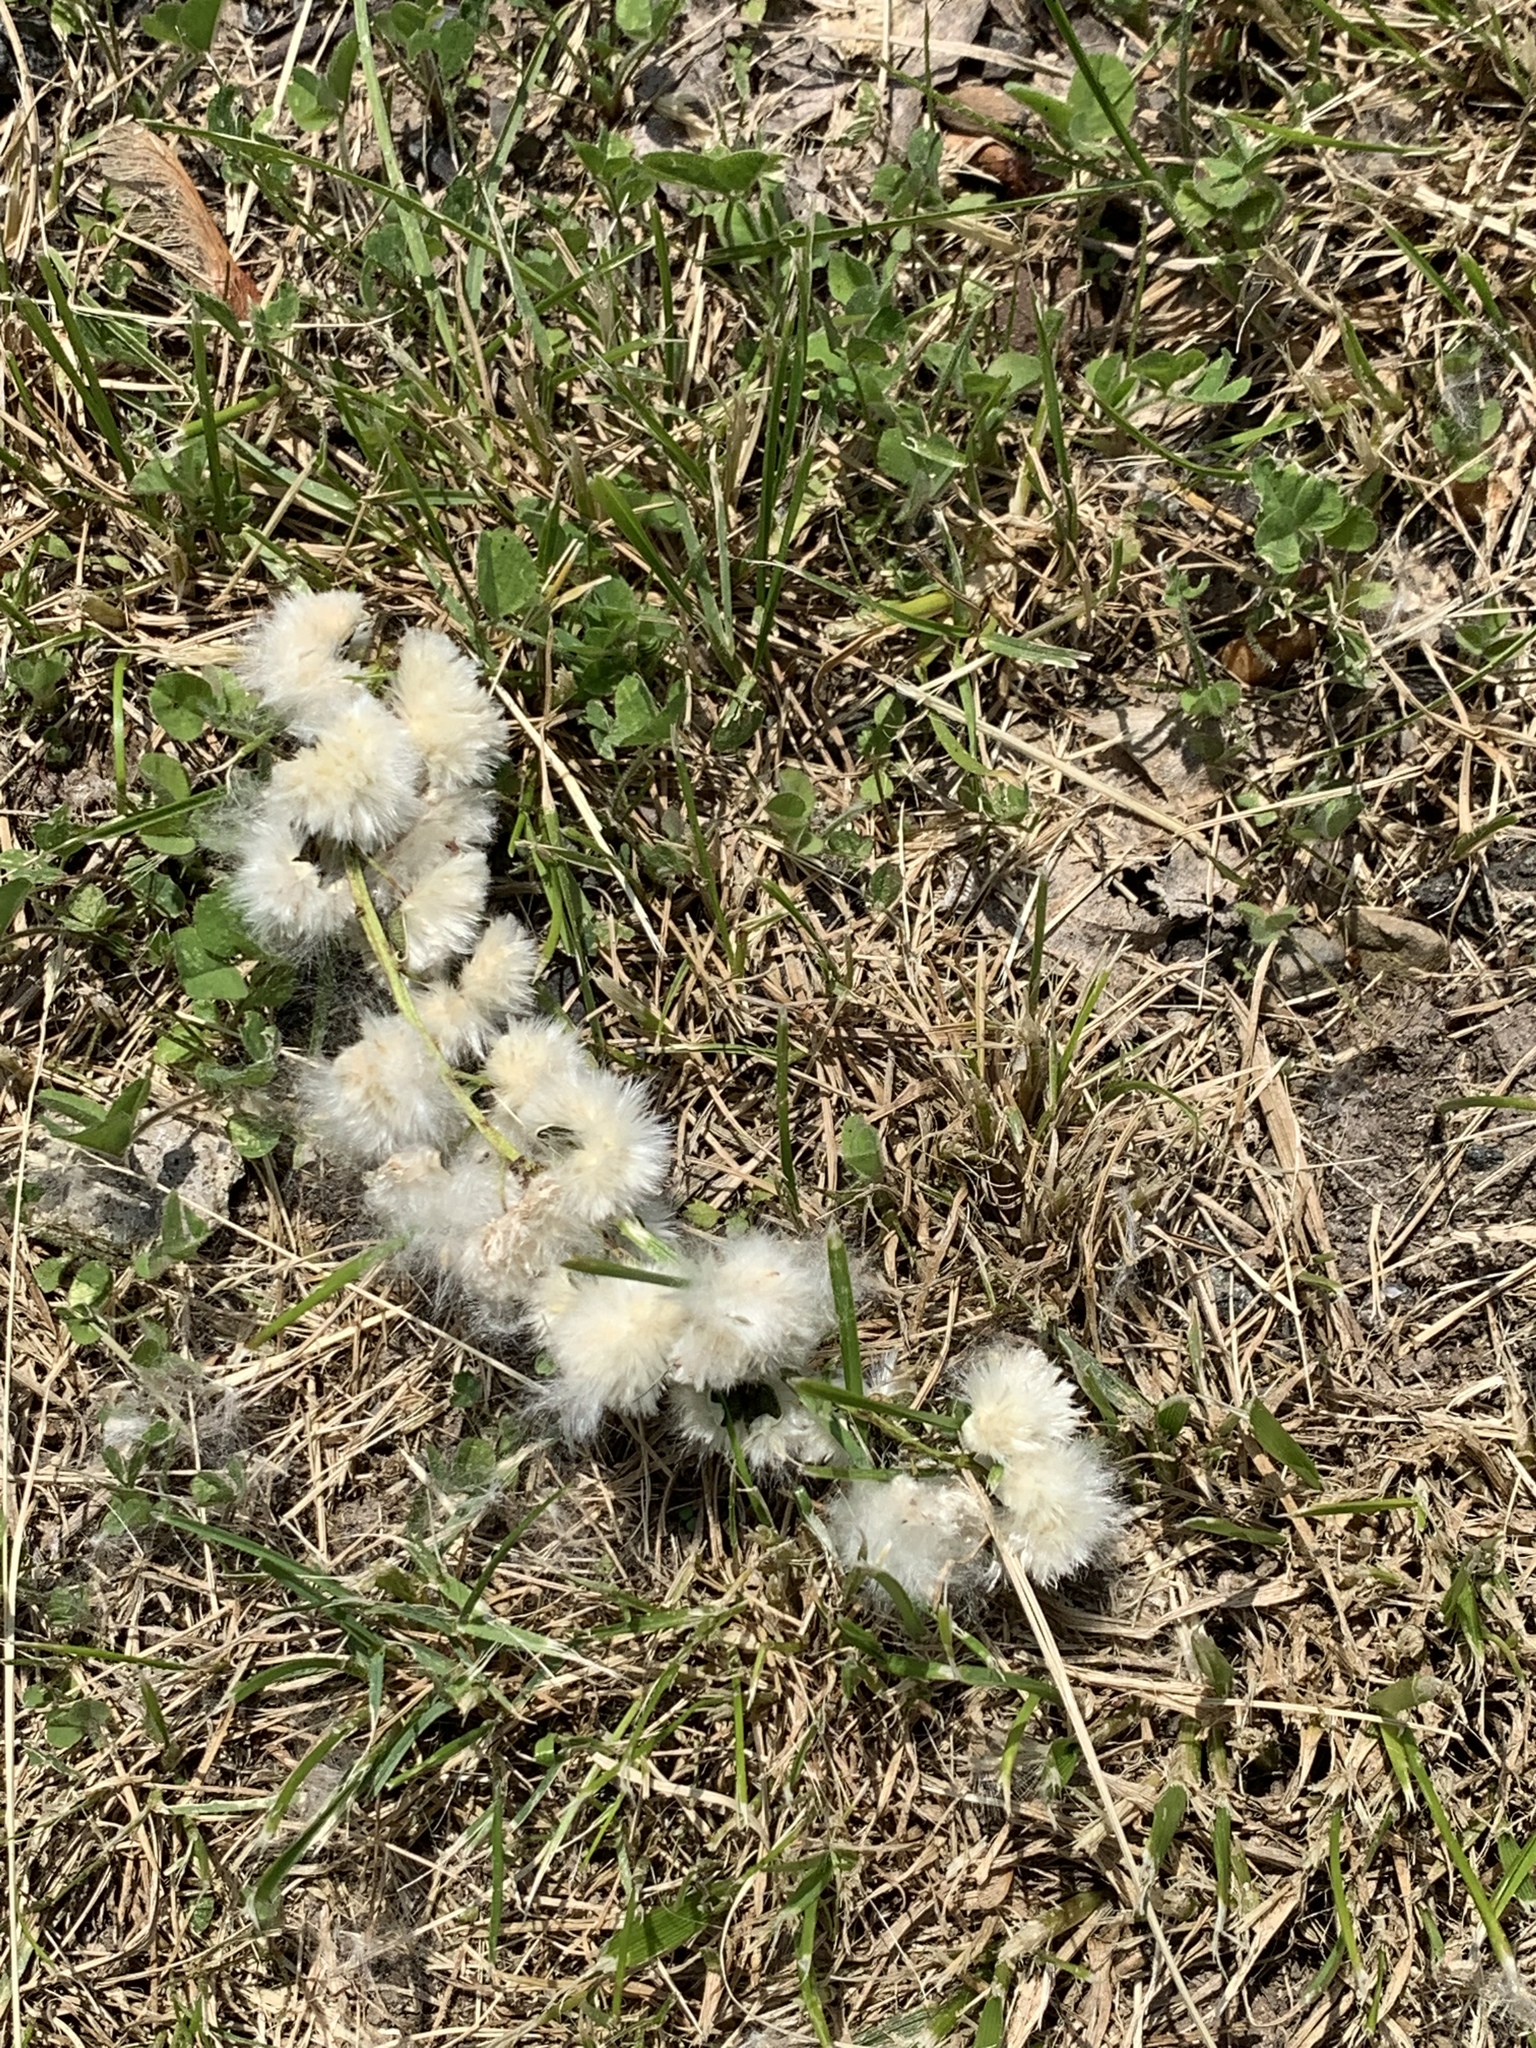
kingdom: Plantae
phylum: Tracheophyta
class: Magnoliopsida
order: Malpighiales
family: Salicaceae
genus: Populus
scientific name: Populus deltoides
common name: Eastern cottonwood
